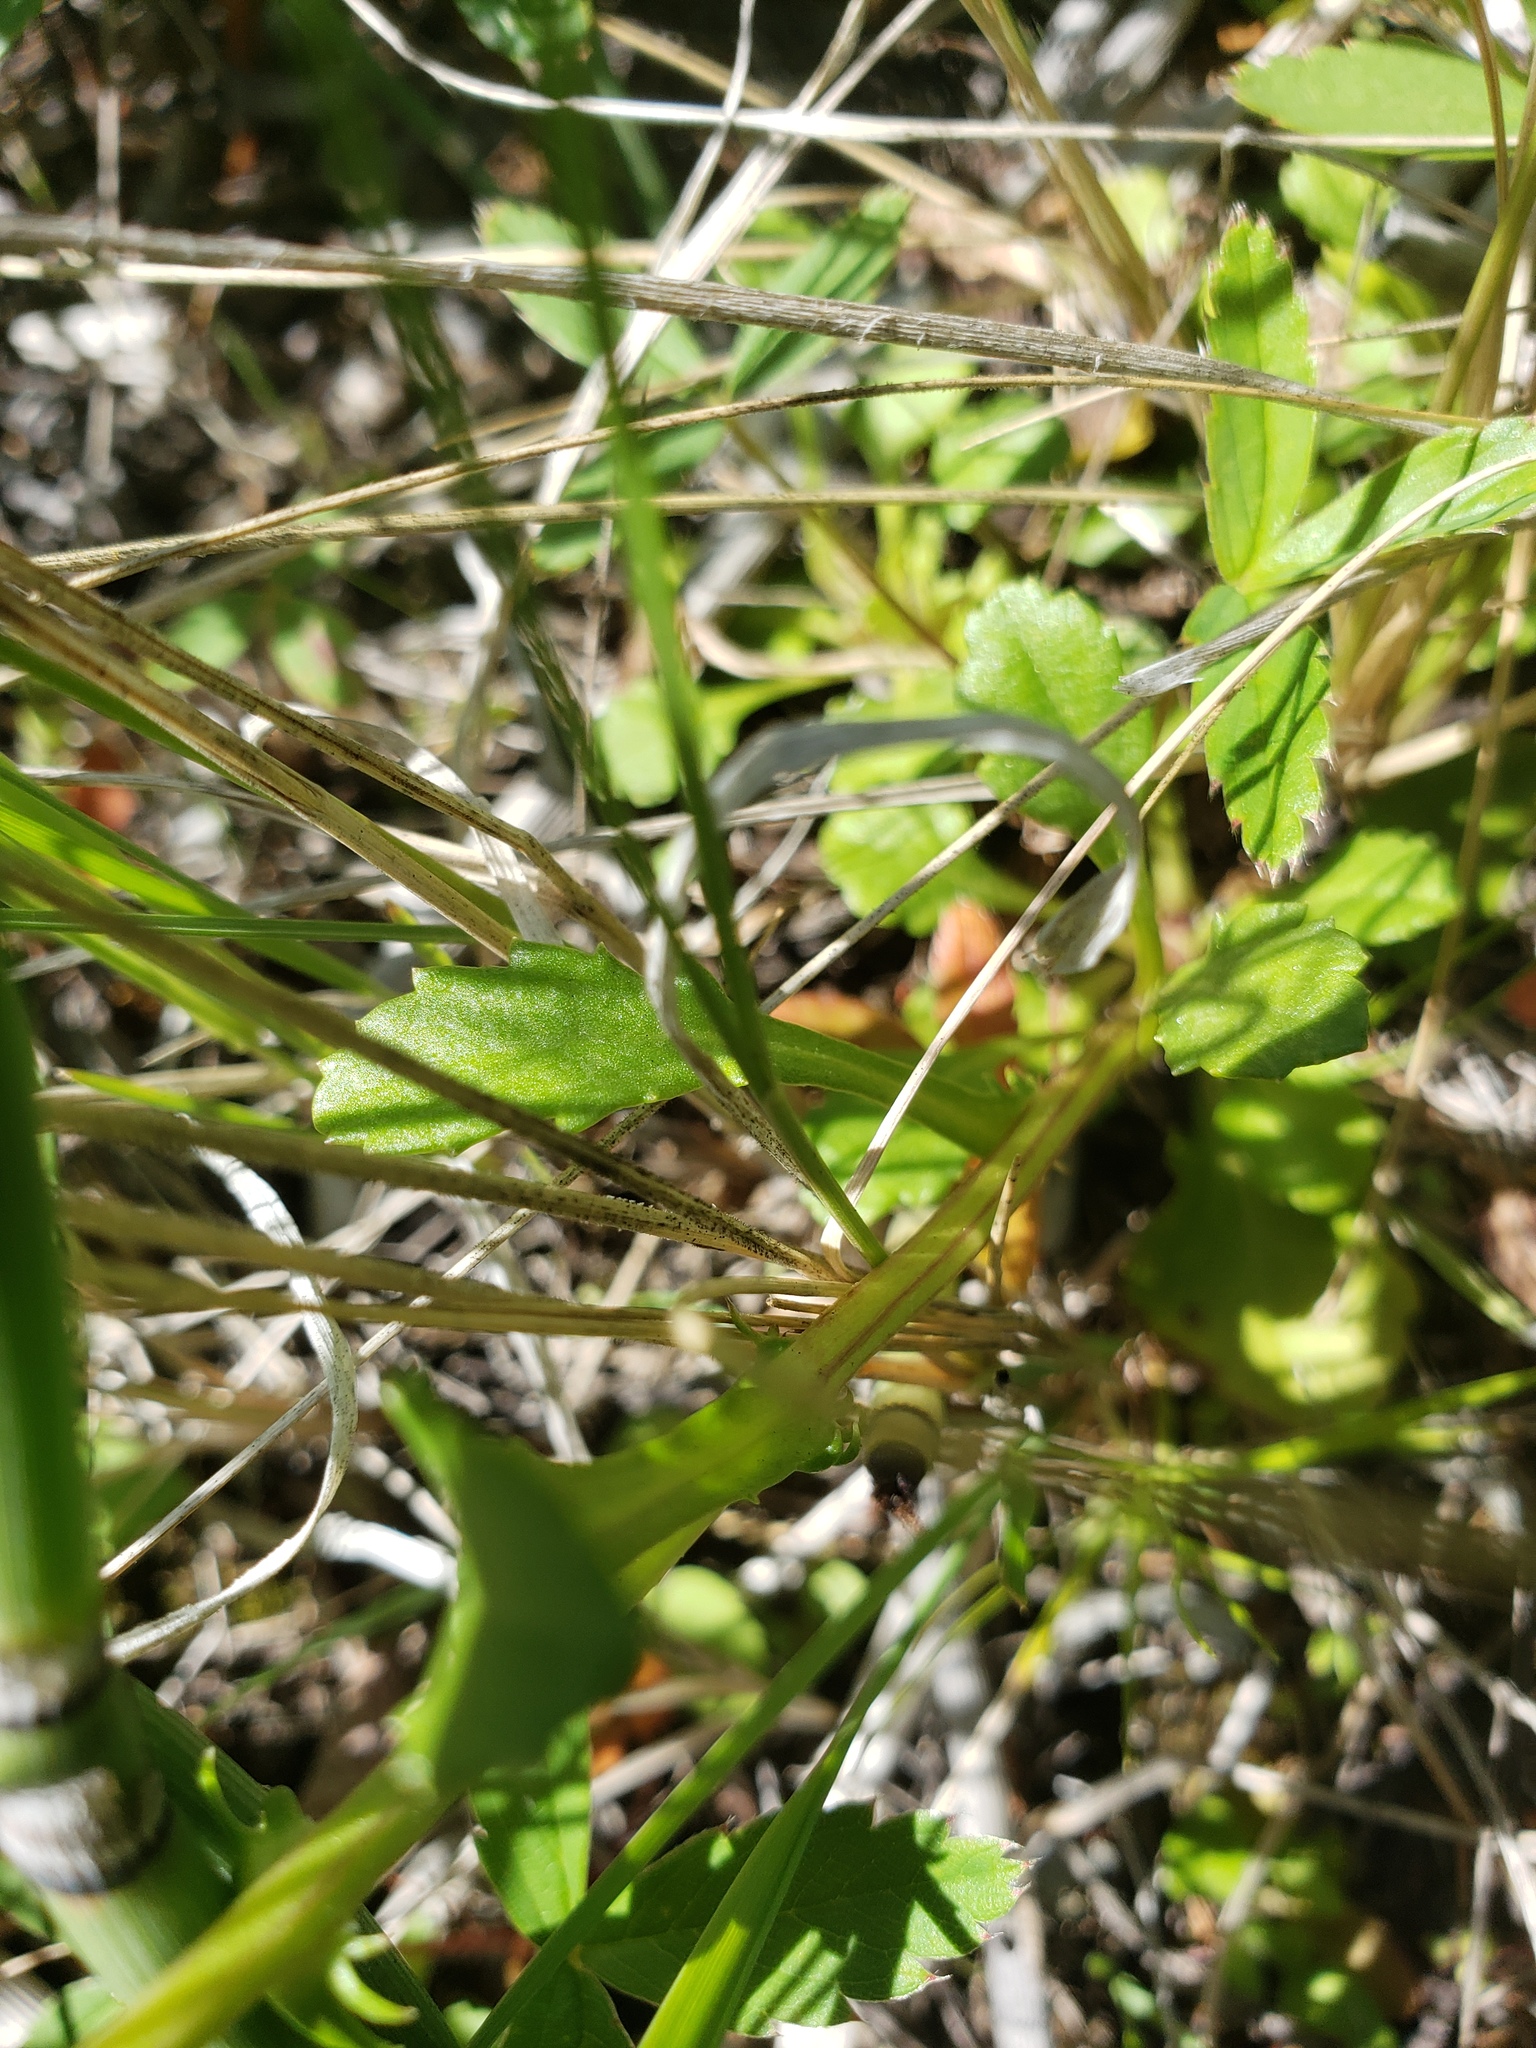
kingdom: Plantae
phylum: Tracheophyta
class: Magnoliopsida
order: Asterales
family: Asteraceae
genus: Leucanthemum
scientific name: Leucanthemum vulgare
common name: Oxeye daisy
